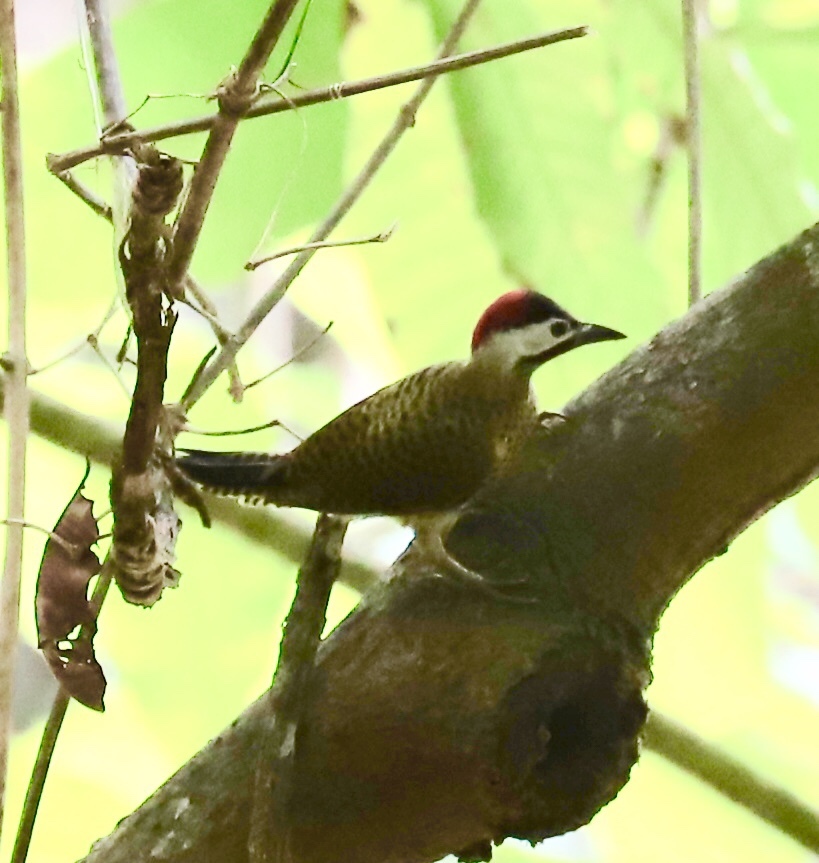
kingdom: Animalia
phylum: Chordata
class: Aves
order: Piciformes
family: Picidae
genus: Colaptes
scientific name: Colaptes punctigula
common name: Spot-breasted woodpecker
